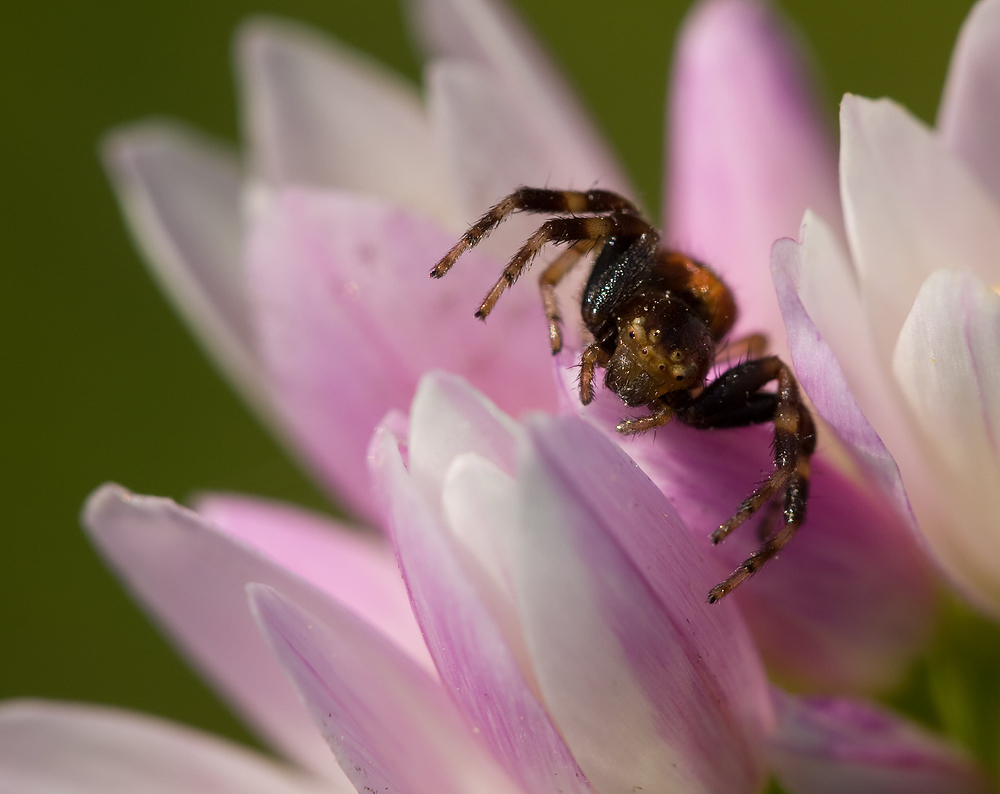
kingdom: Animalia
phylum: Arthropoda
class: Arachnida
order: Araneae
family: Thomisidae
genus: Synema
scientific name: Synema globosum
